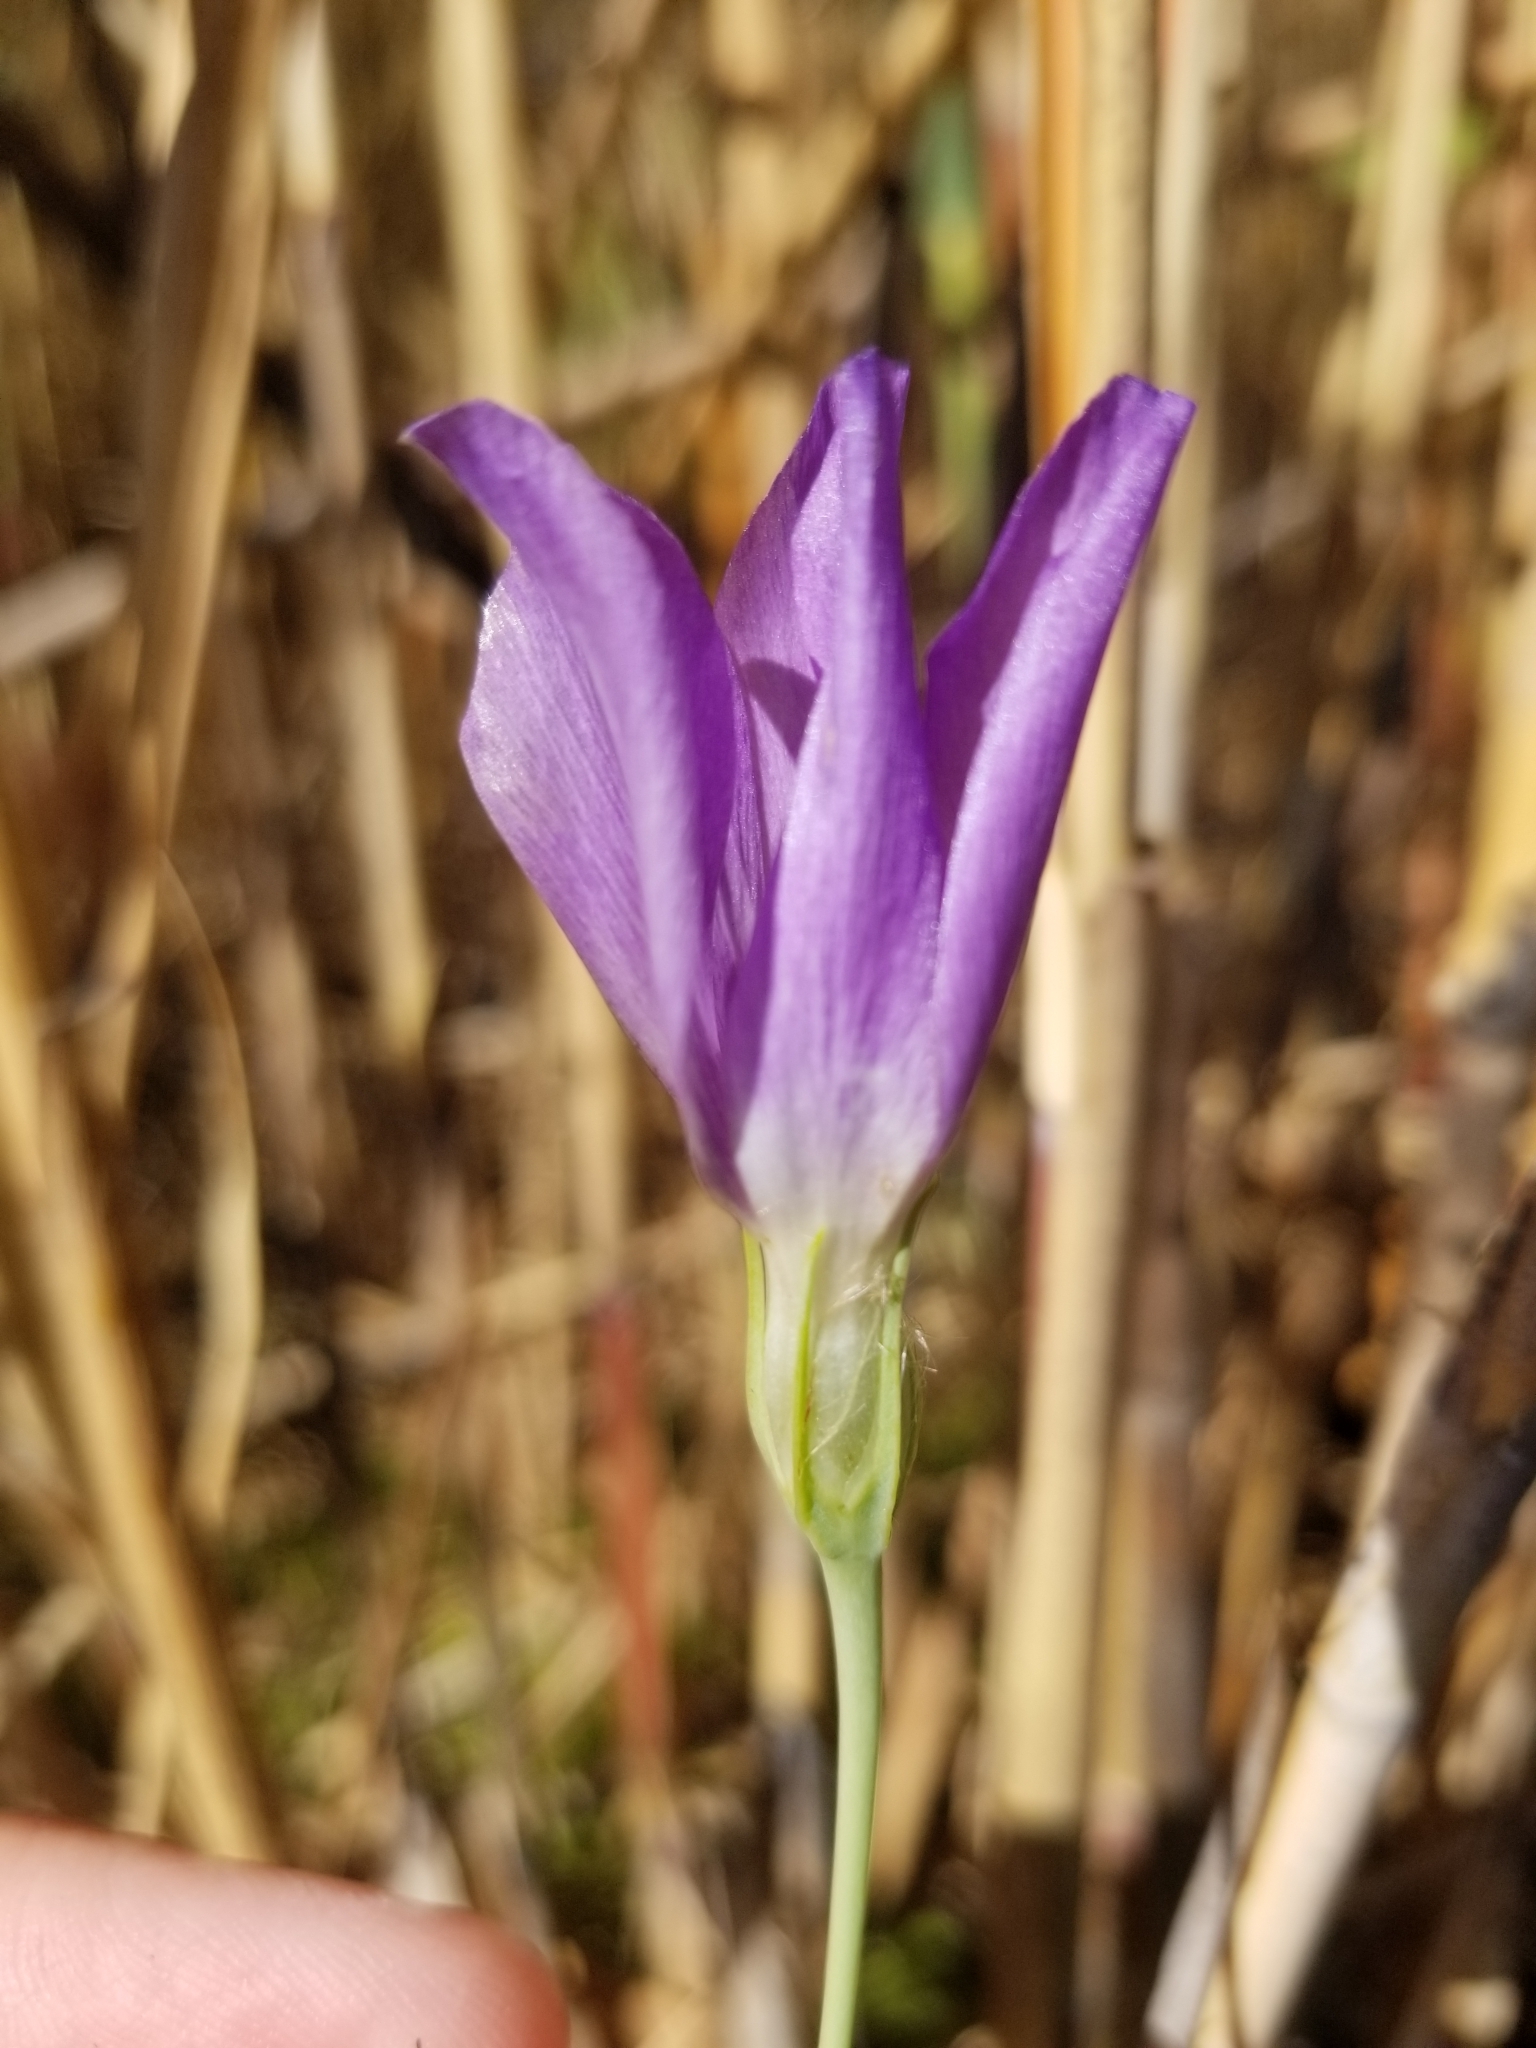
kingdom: Plantae
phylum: Tracheophyta
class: Magnoliopsida
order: Gentianales
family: Gentianaceae
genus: Eustoma
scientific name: Eustoma exaltatum
